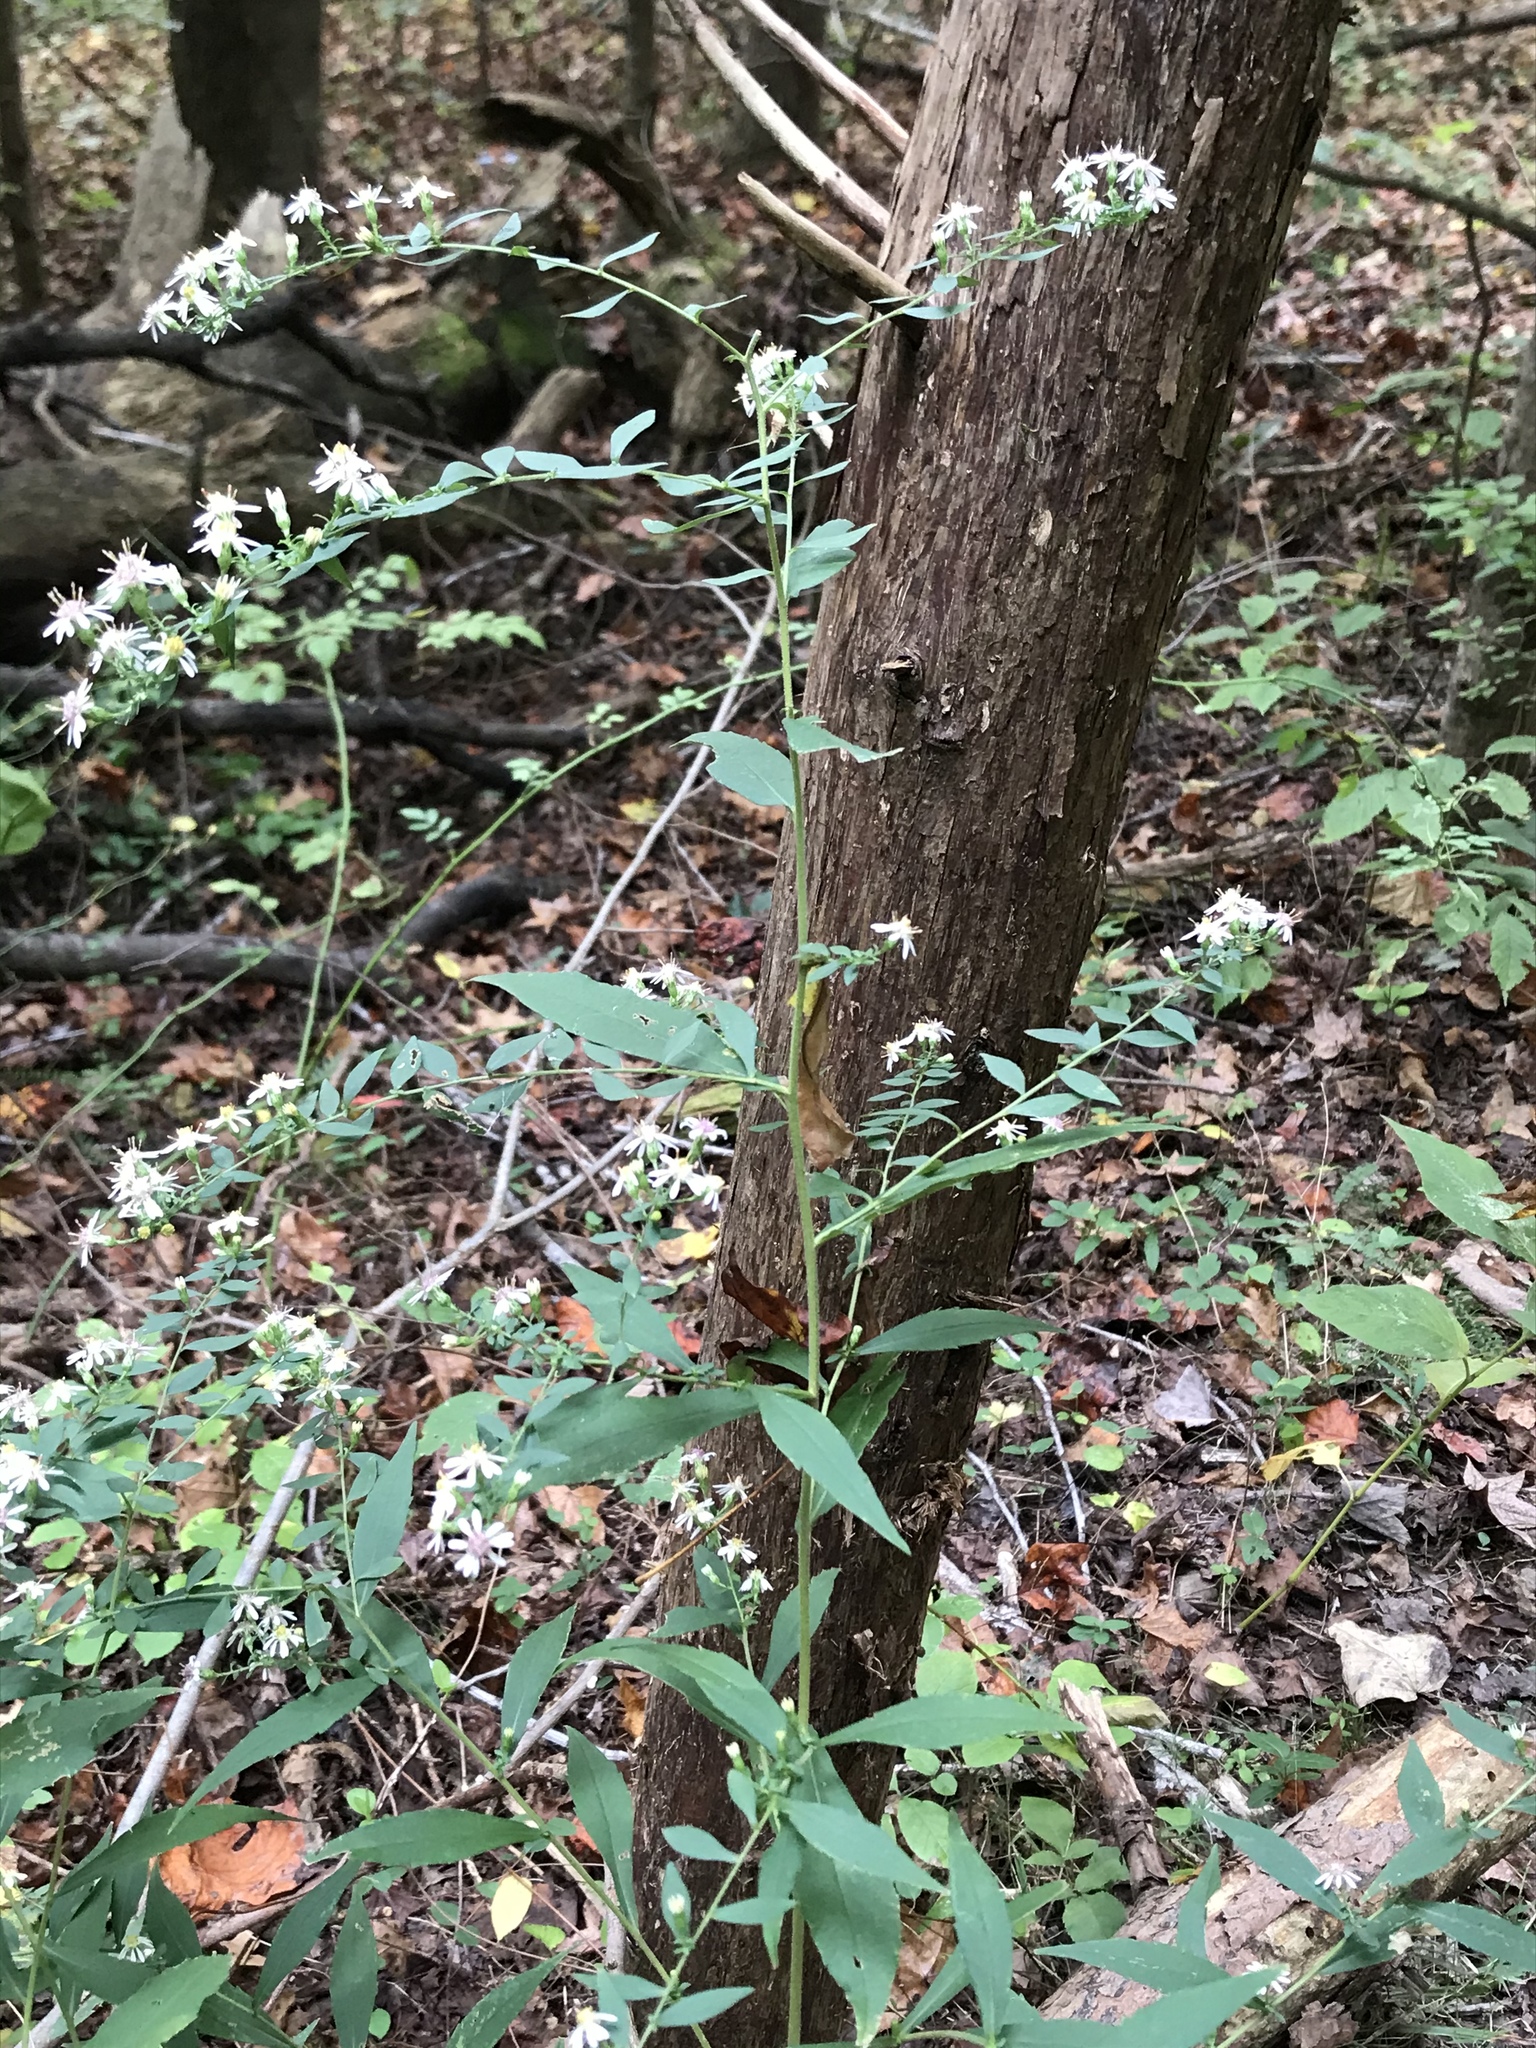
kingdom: Plantae
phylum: Tracheophyta
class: Magnoliopsida
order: Asterales
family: Asteraceae
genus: Symphyotrichum
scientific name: Symphyotrichum lateriflorum
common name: Calico aster
